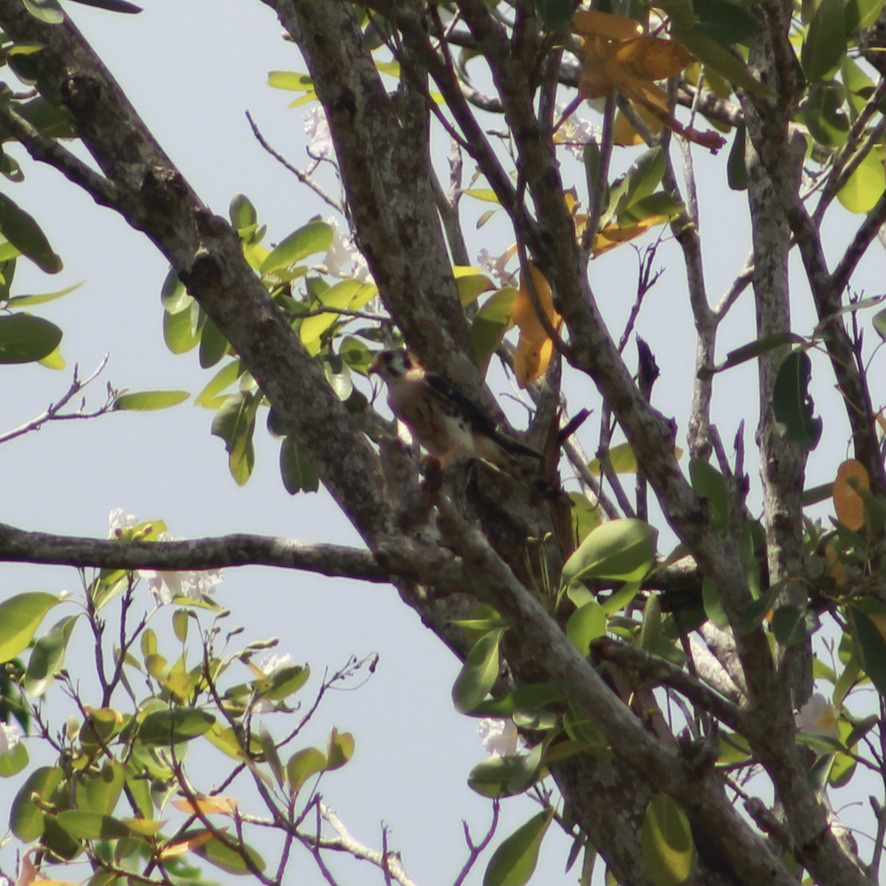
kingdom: Animalia
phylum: Chordata
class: Aves
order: Falconiformes
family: Falconidae
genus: Falco
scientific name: Falco sparverius
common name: American kestrel
